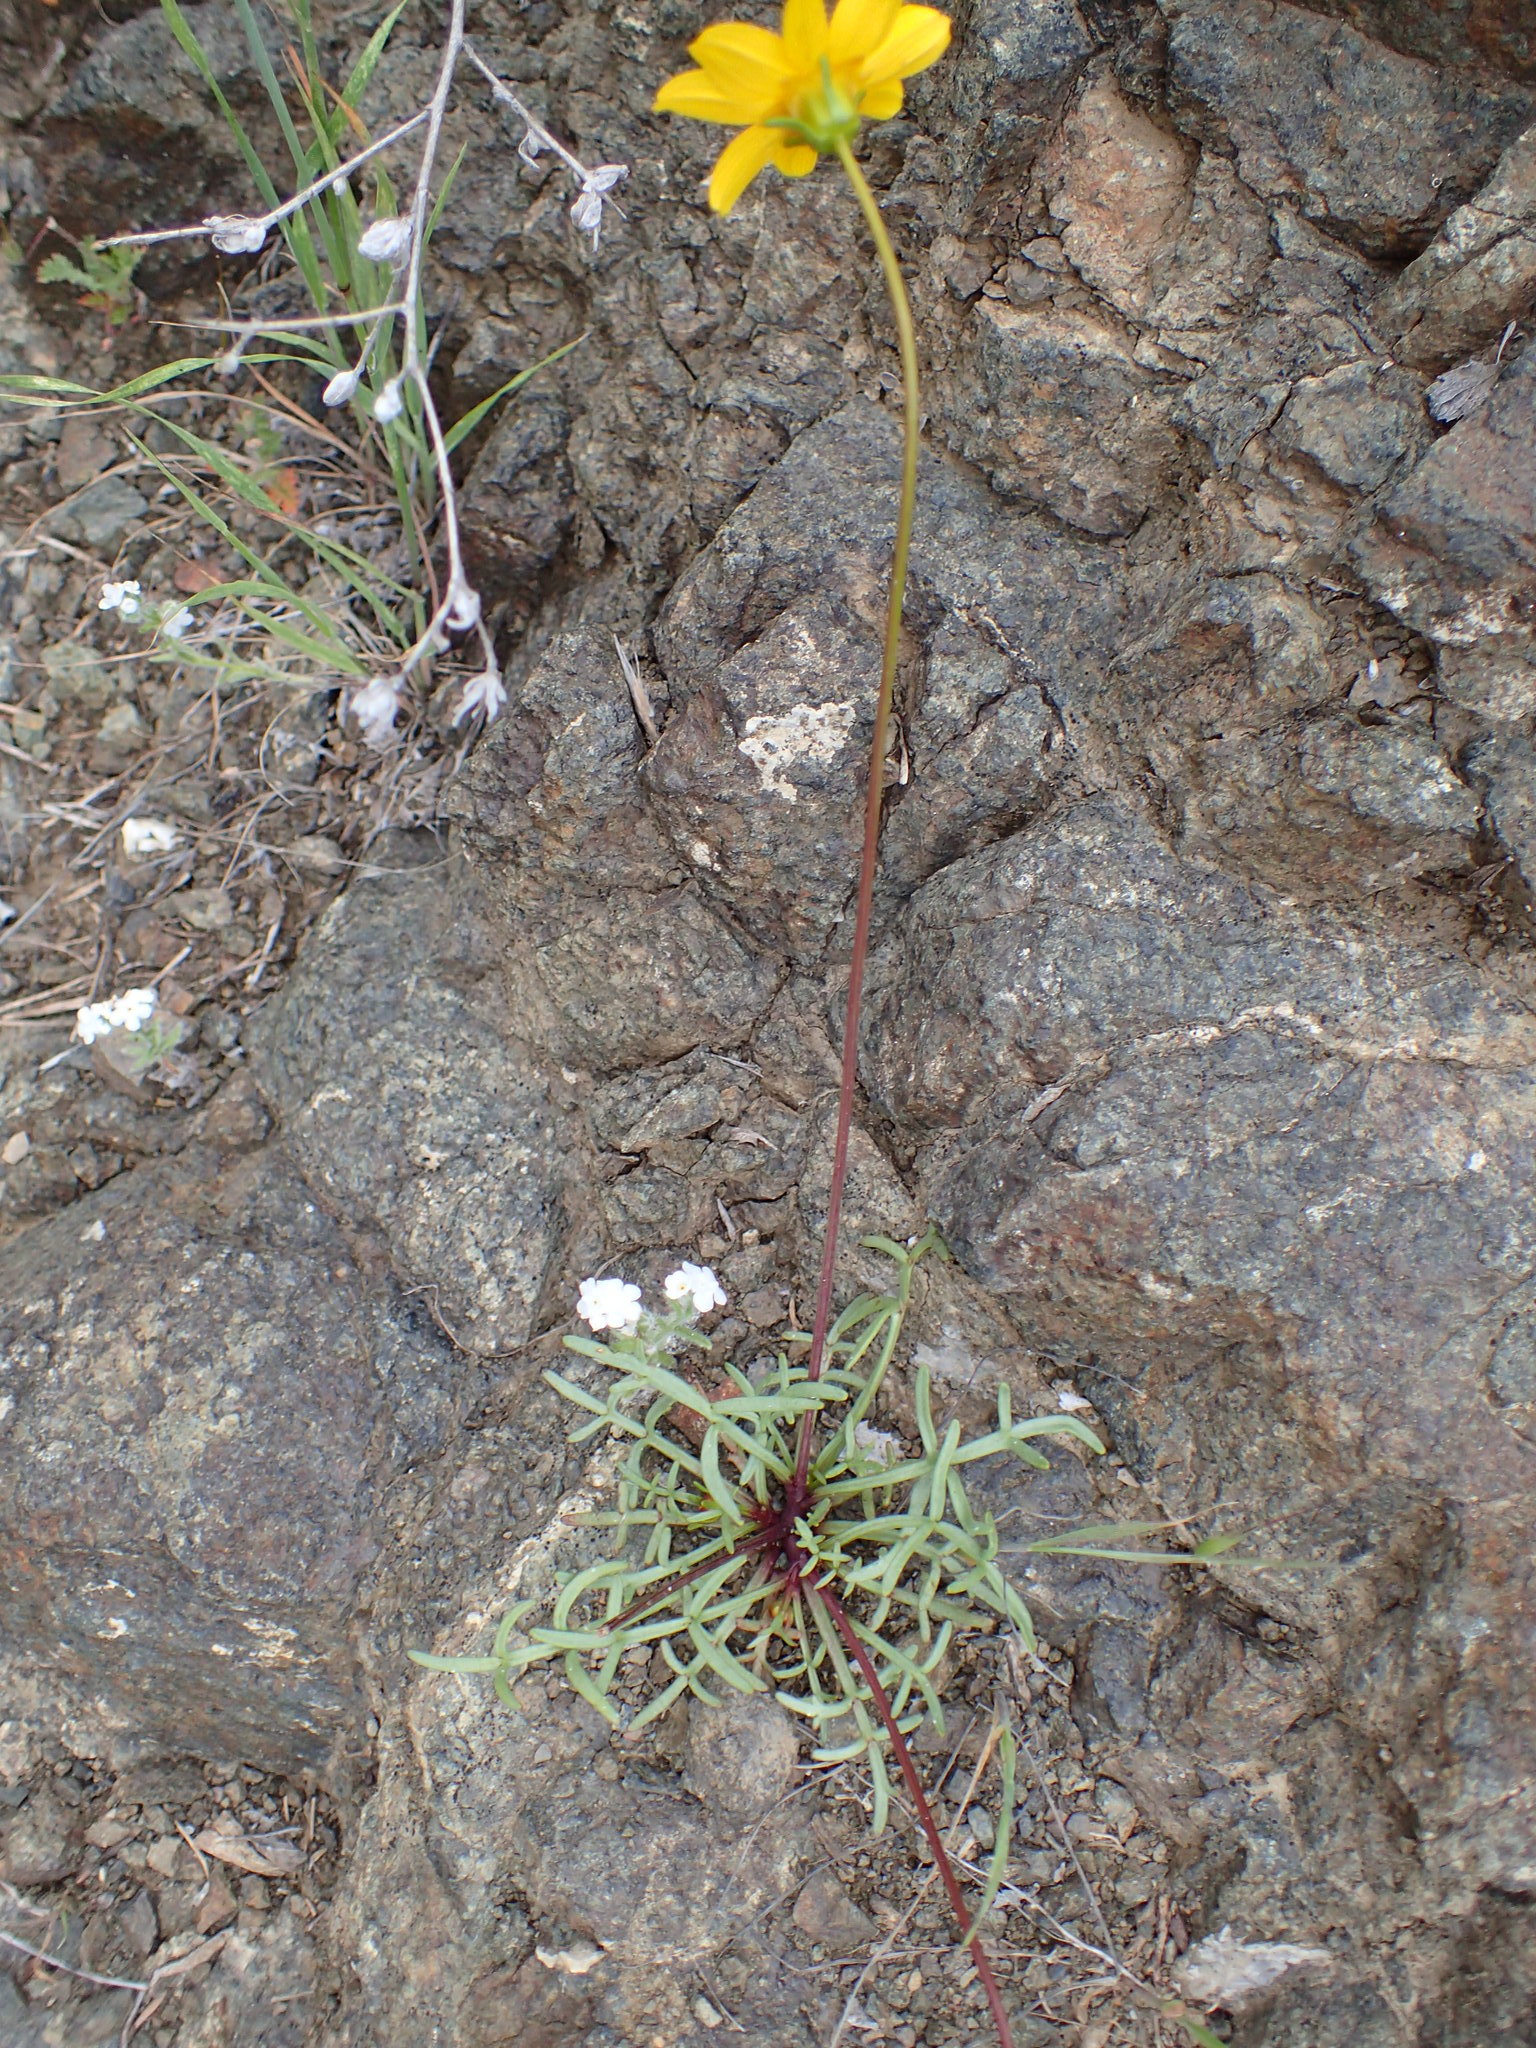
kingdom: Plantae
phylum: Tracheophyta
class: Magnoliopsida
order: Asterales
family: Asteraceae
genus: Coreopsis
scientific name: Coreopsis bigelovii
